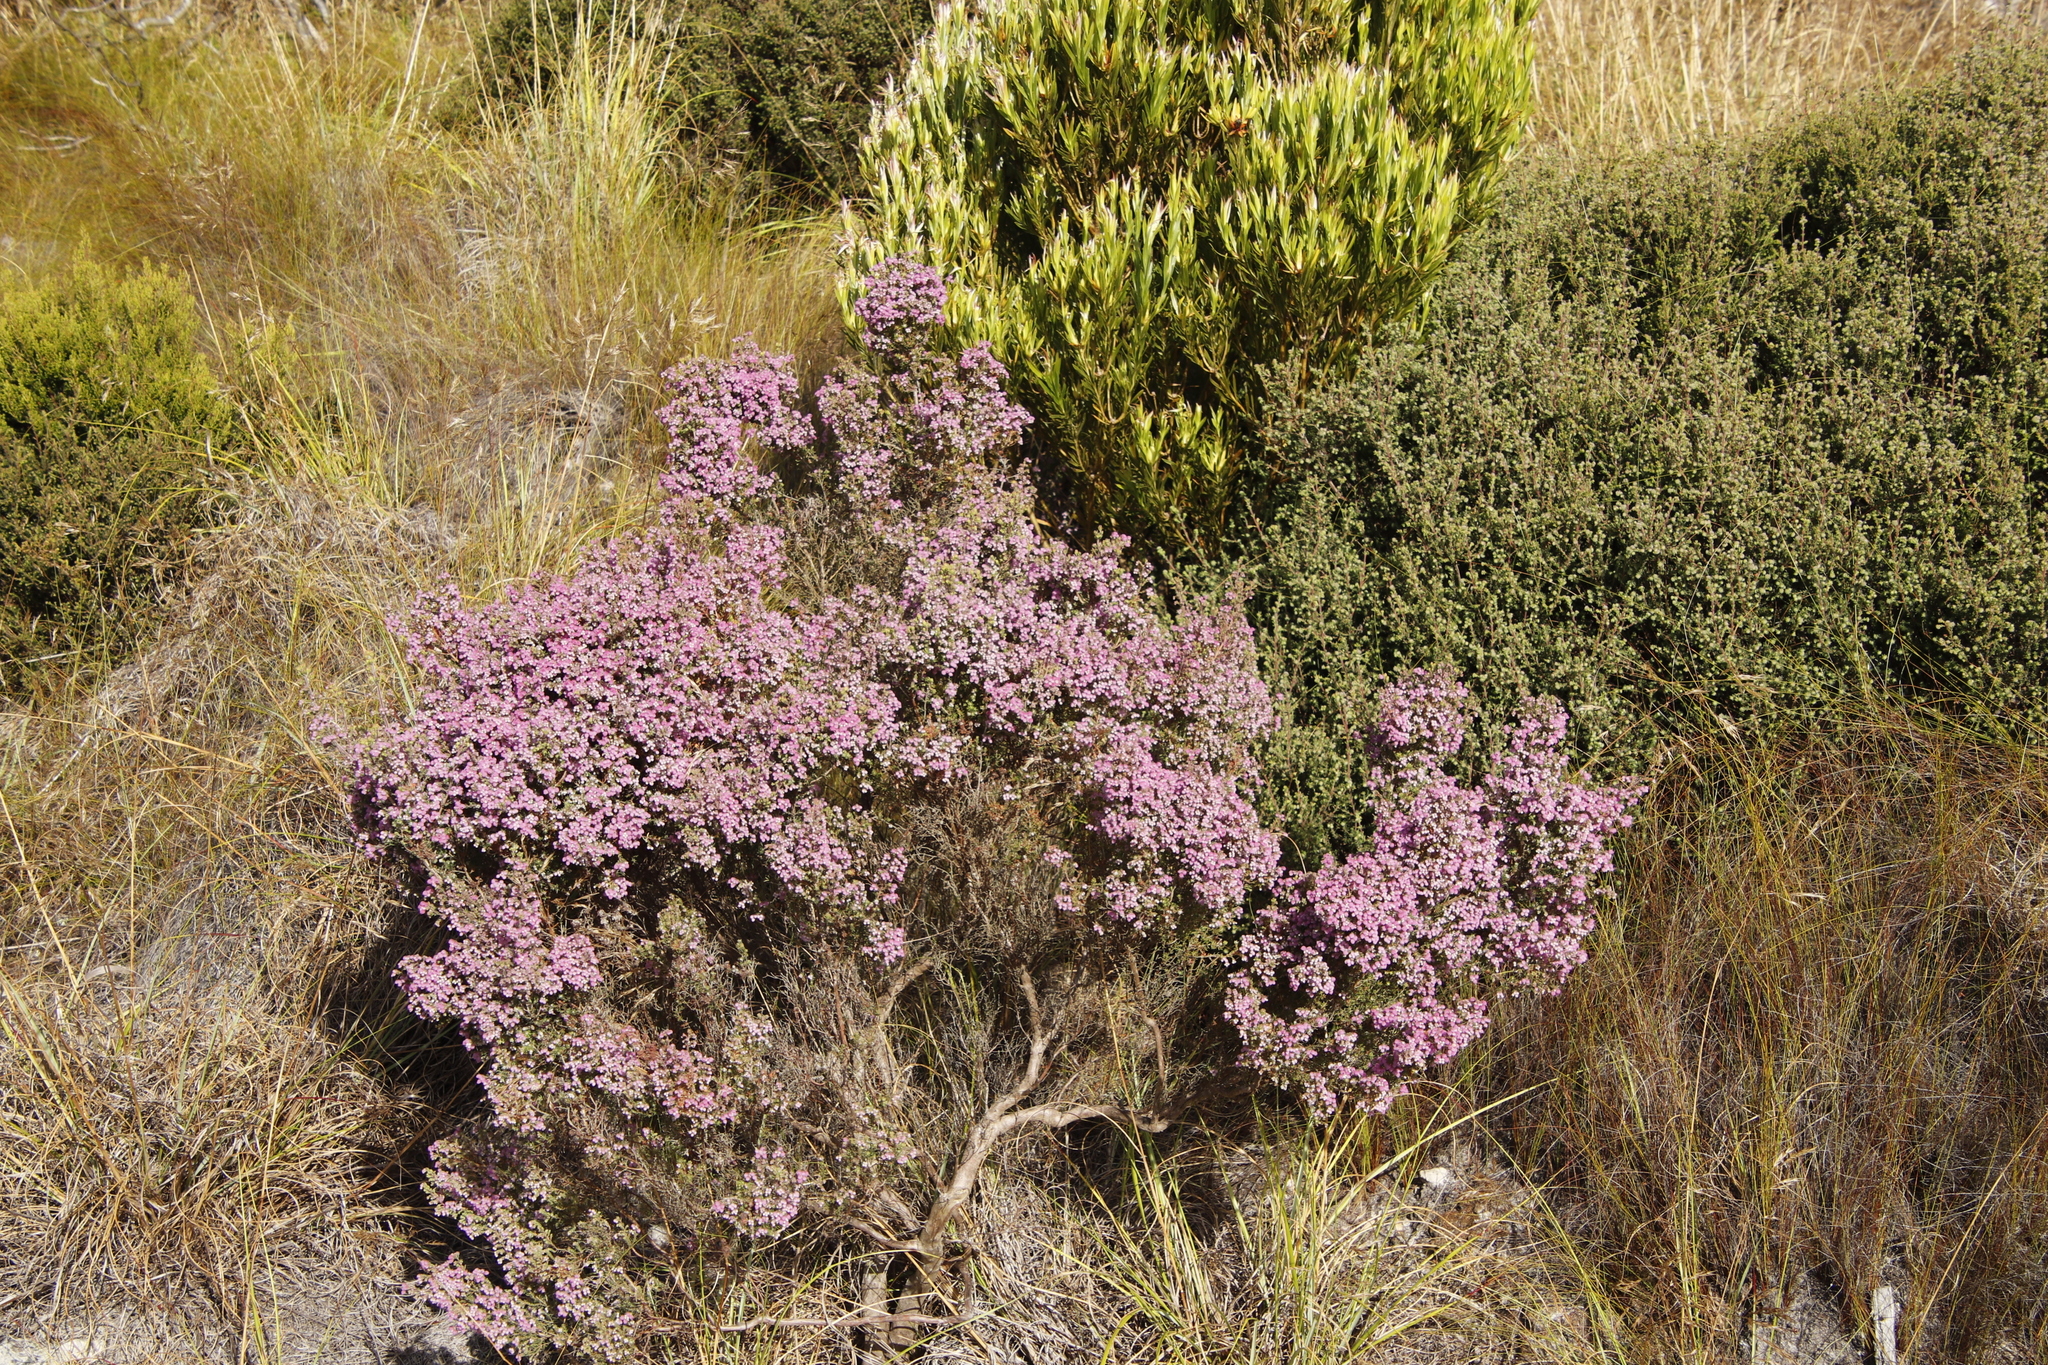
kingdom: Plantae
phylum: Tracheophyta
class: Magnoliopsida
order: Proteales
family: Proteaceae
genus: Leucadendron
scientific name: Leucadendron xanthoconus
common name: Sickle-leaf conebush
